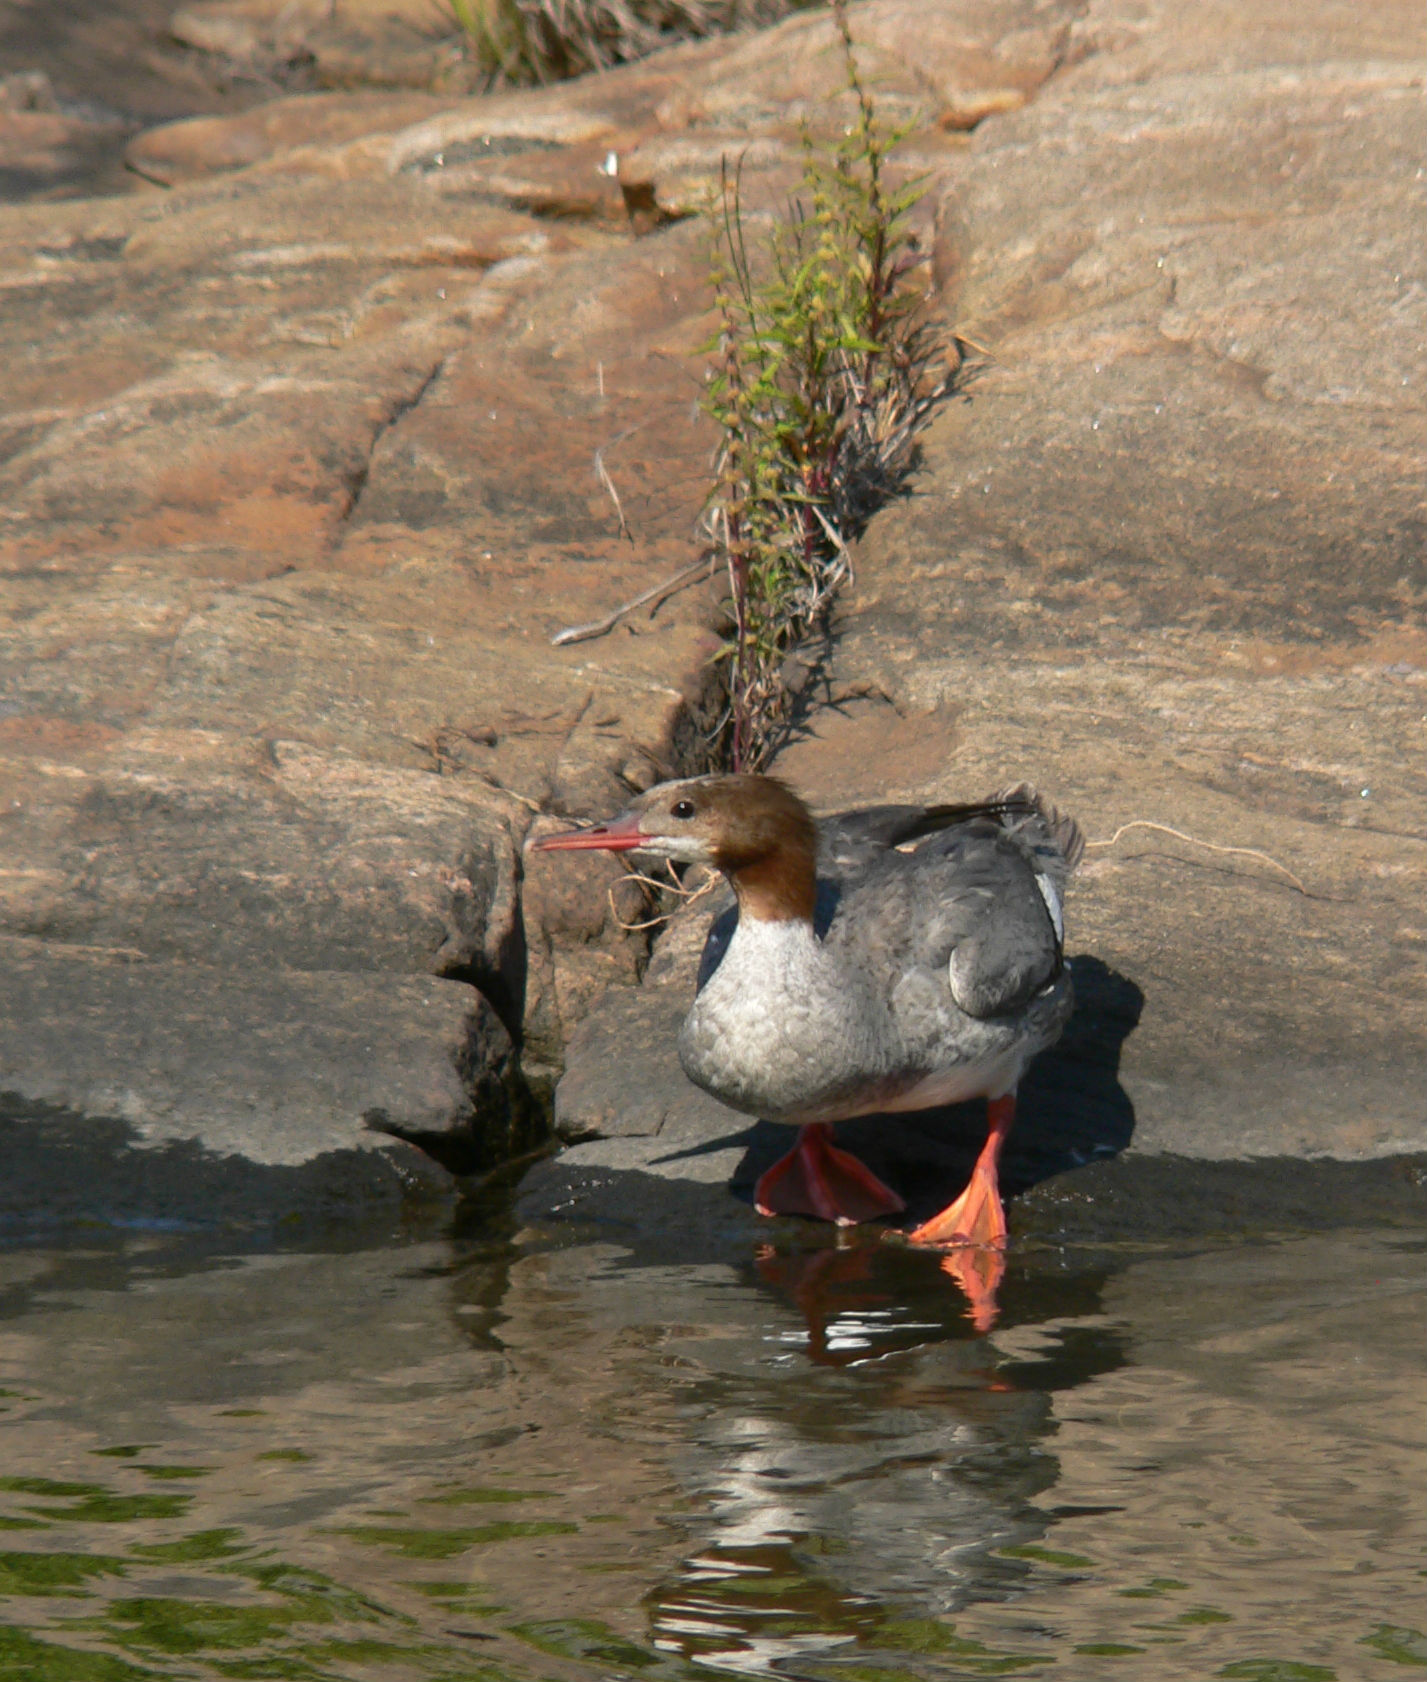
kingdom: Animalia
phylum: Chordata
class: Aves
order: Anseriformes
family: Anatidae
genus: Mergus
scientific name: Mergus merganser
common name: Common merganser
